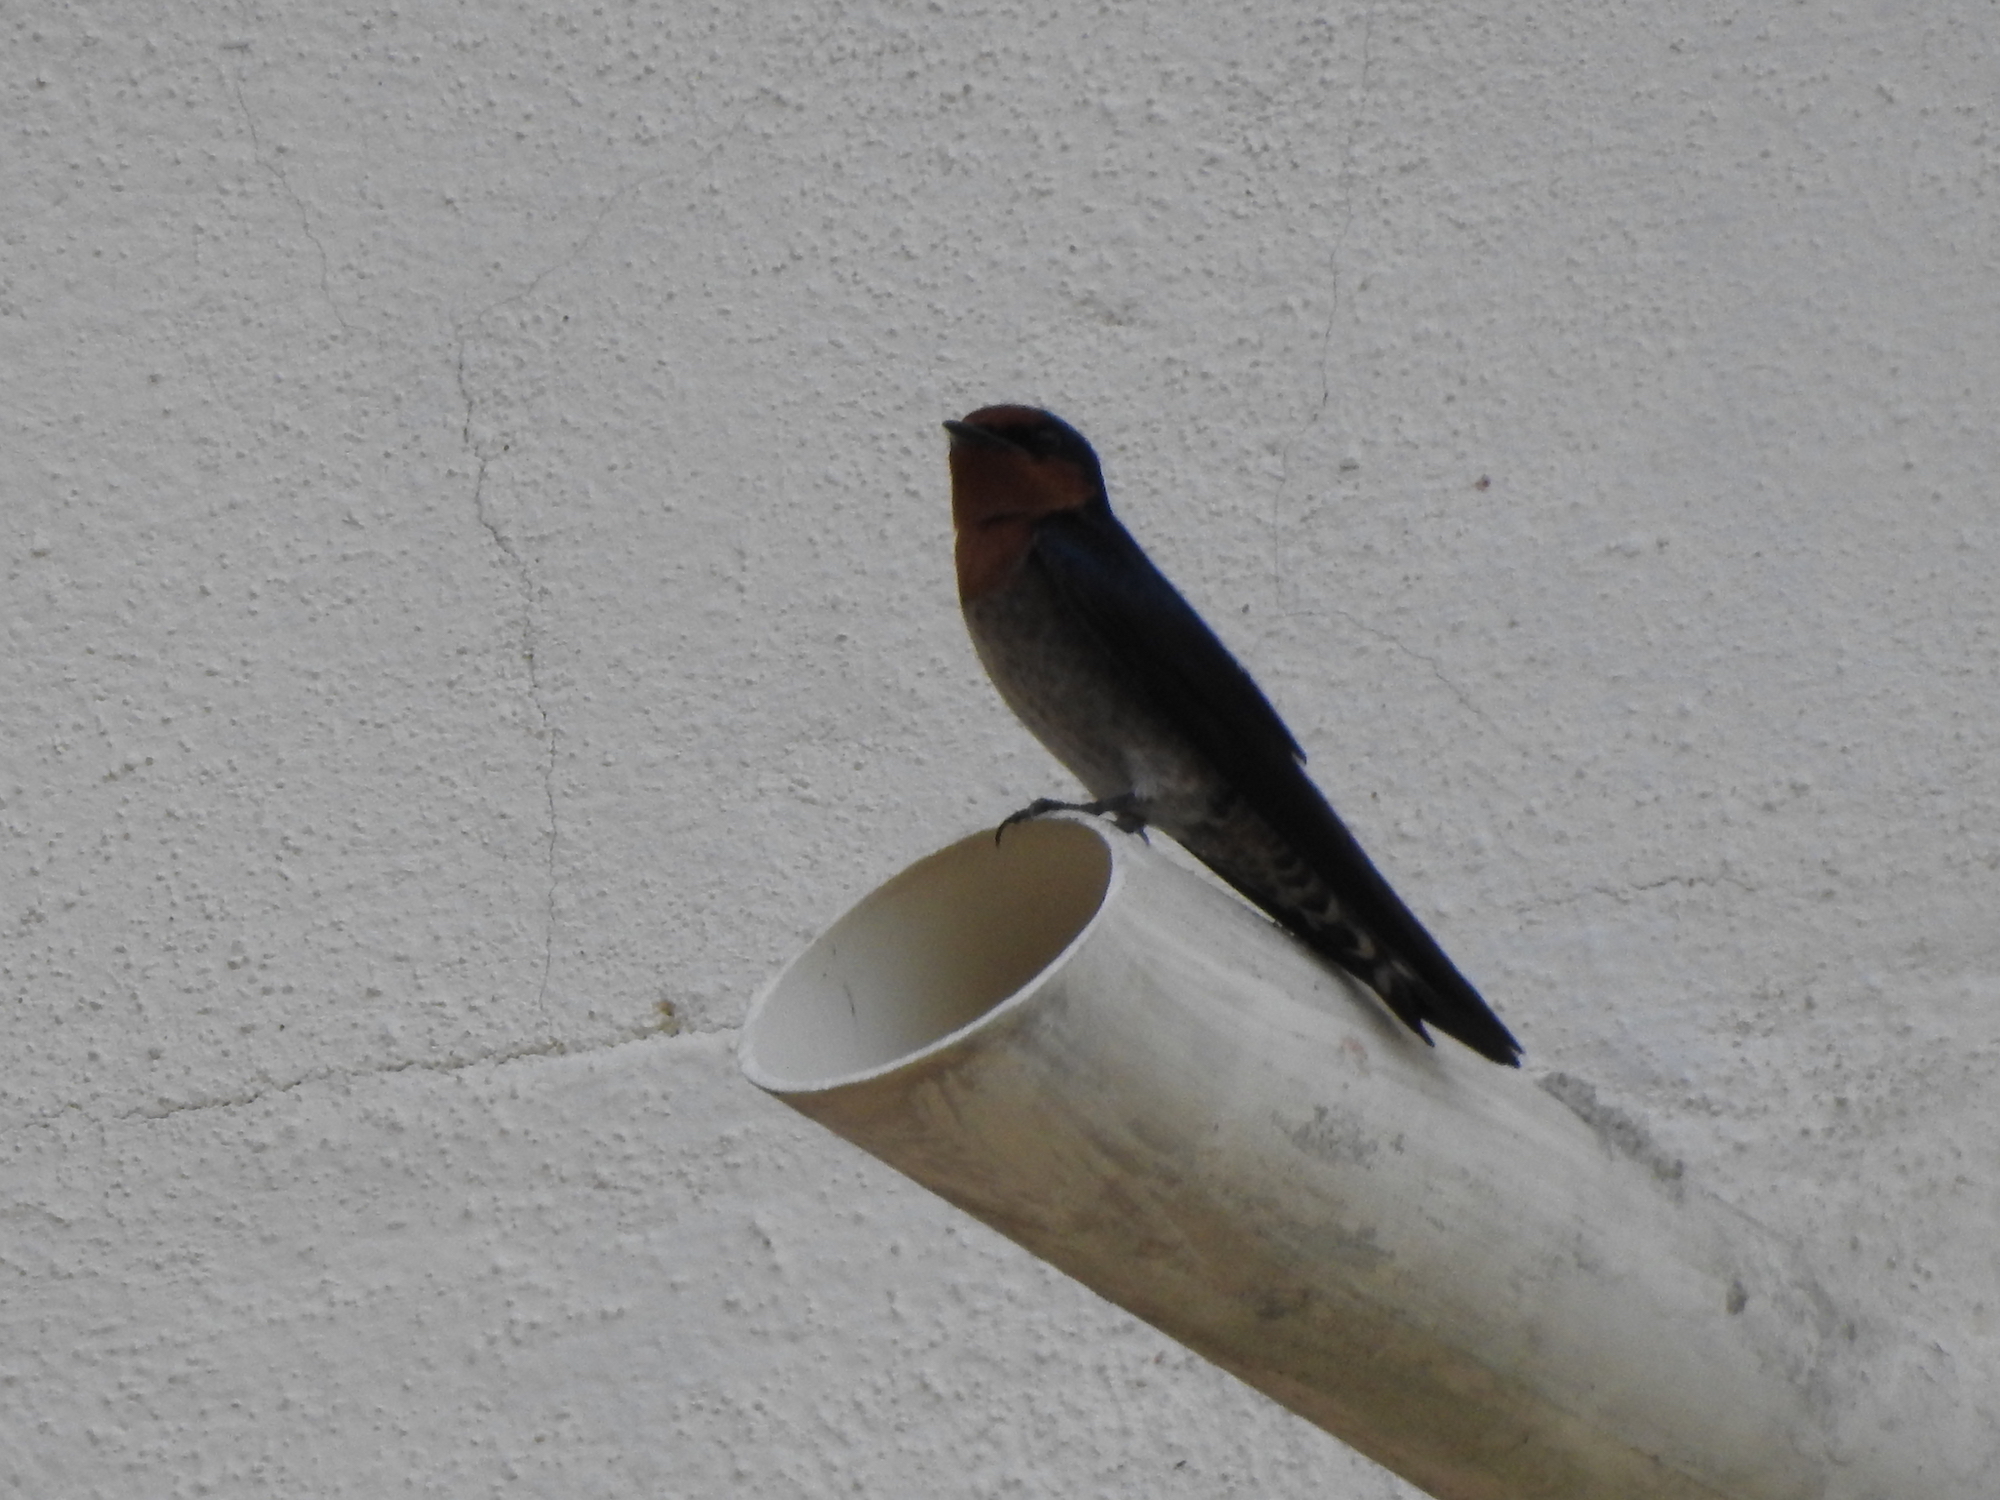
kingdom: Animalia
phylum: Chordata
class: Aves
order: Passeriformes
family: Hirundinidae
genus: Hirundo
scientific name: Hirundo tahitica
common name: Pacific swallow
